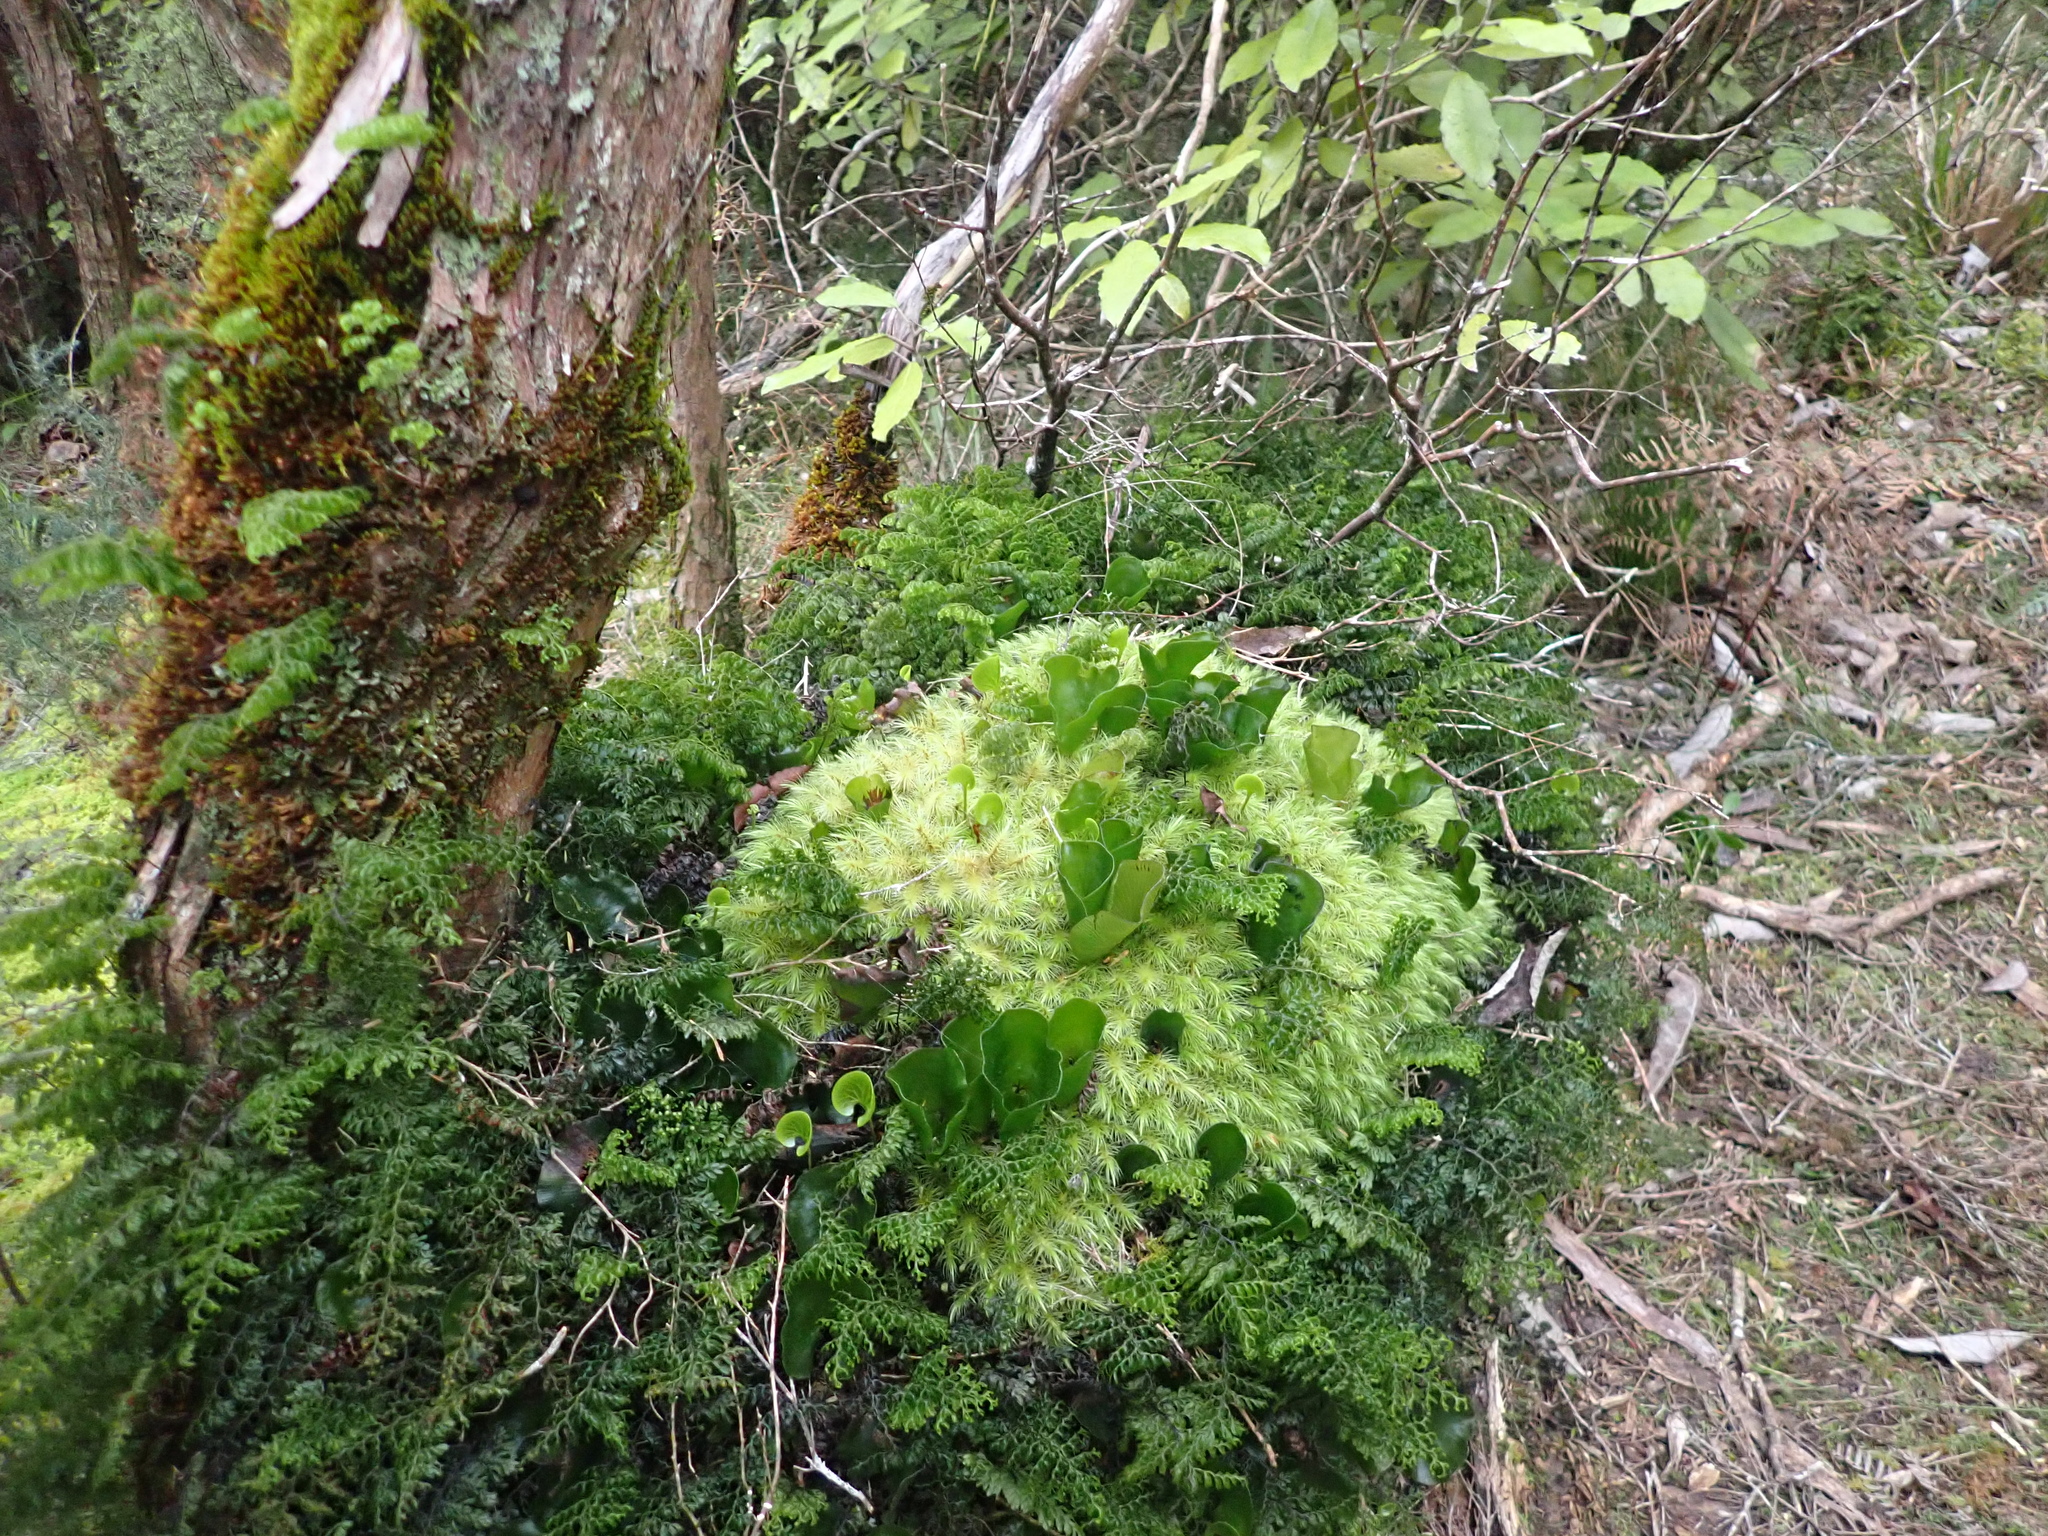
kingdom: Plantae
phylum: Tracheophyta
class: Polypodiopsida
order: Hymenophyllales
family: Hymenophyllaceae
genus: Hymenophyllum
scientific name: Hymenophyllum nephrophyllum
